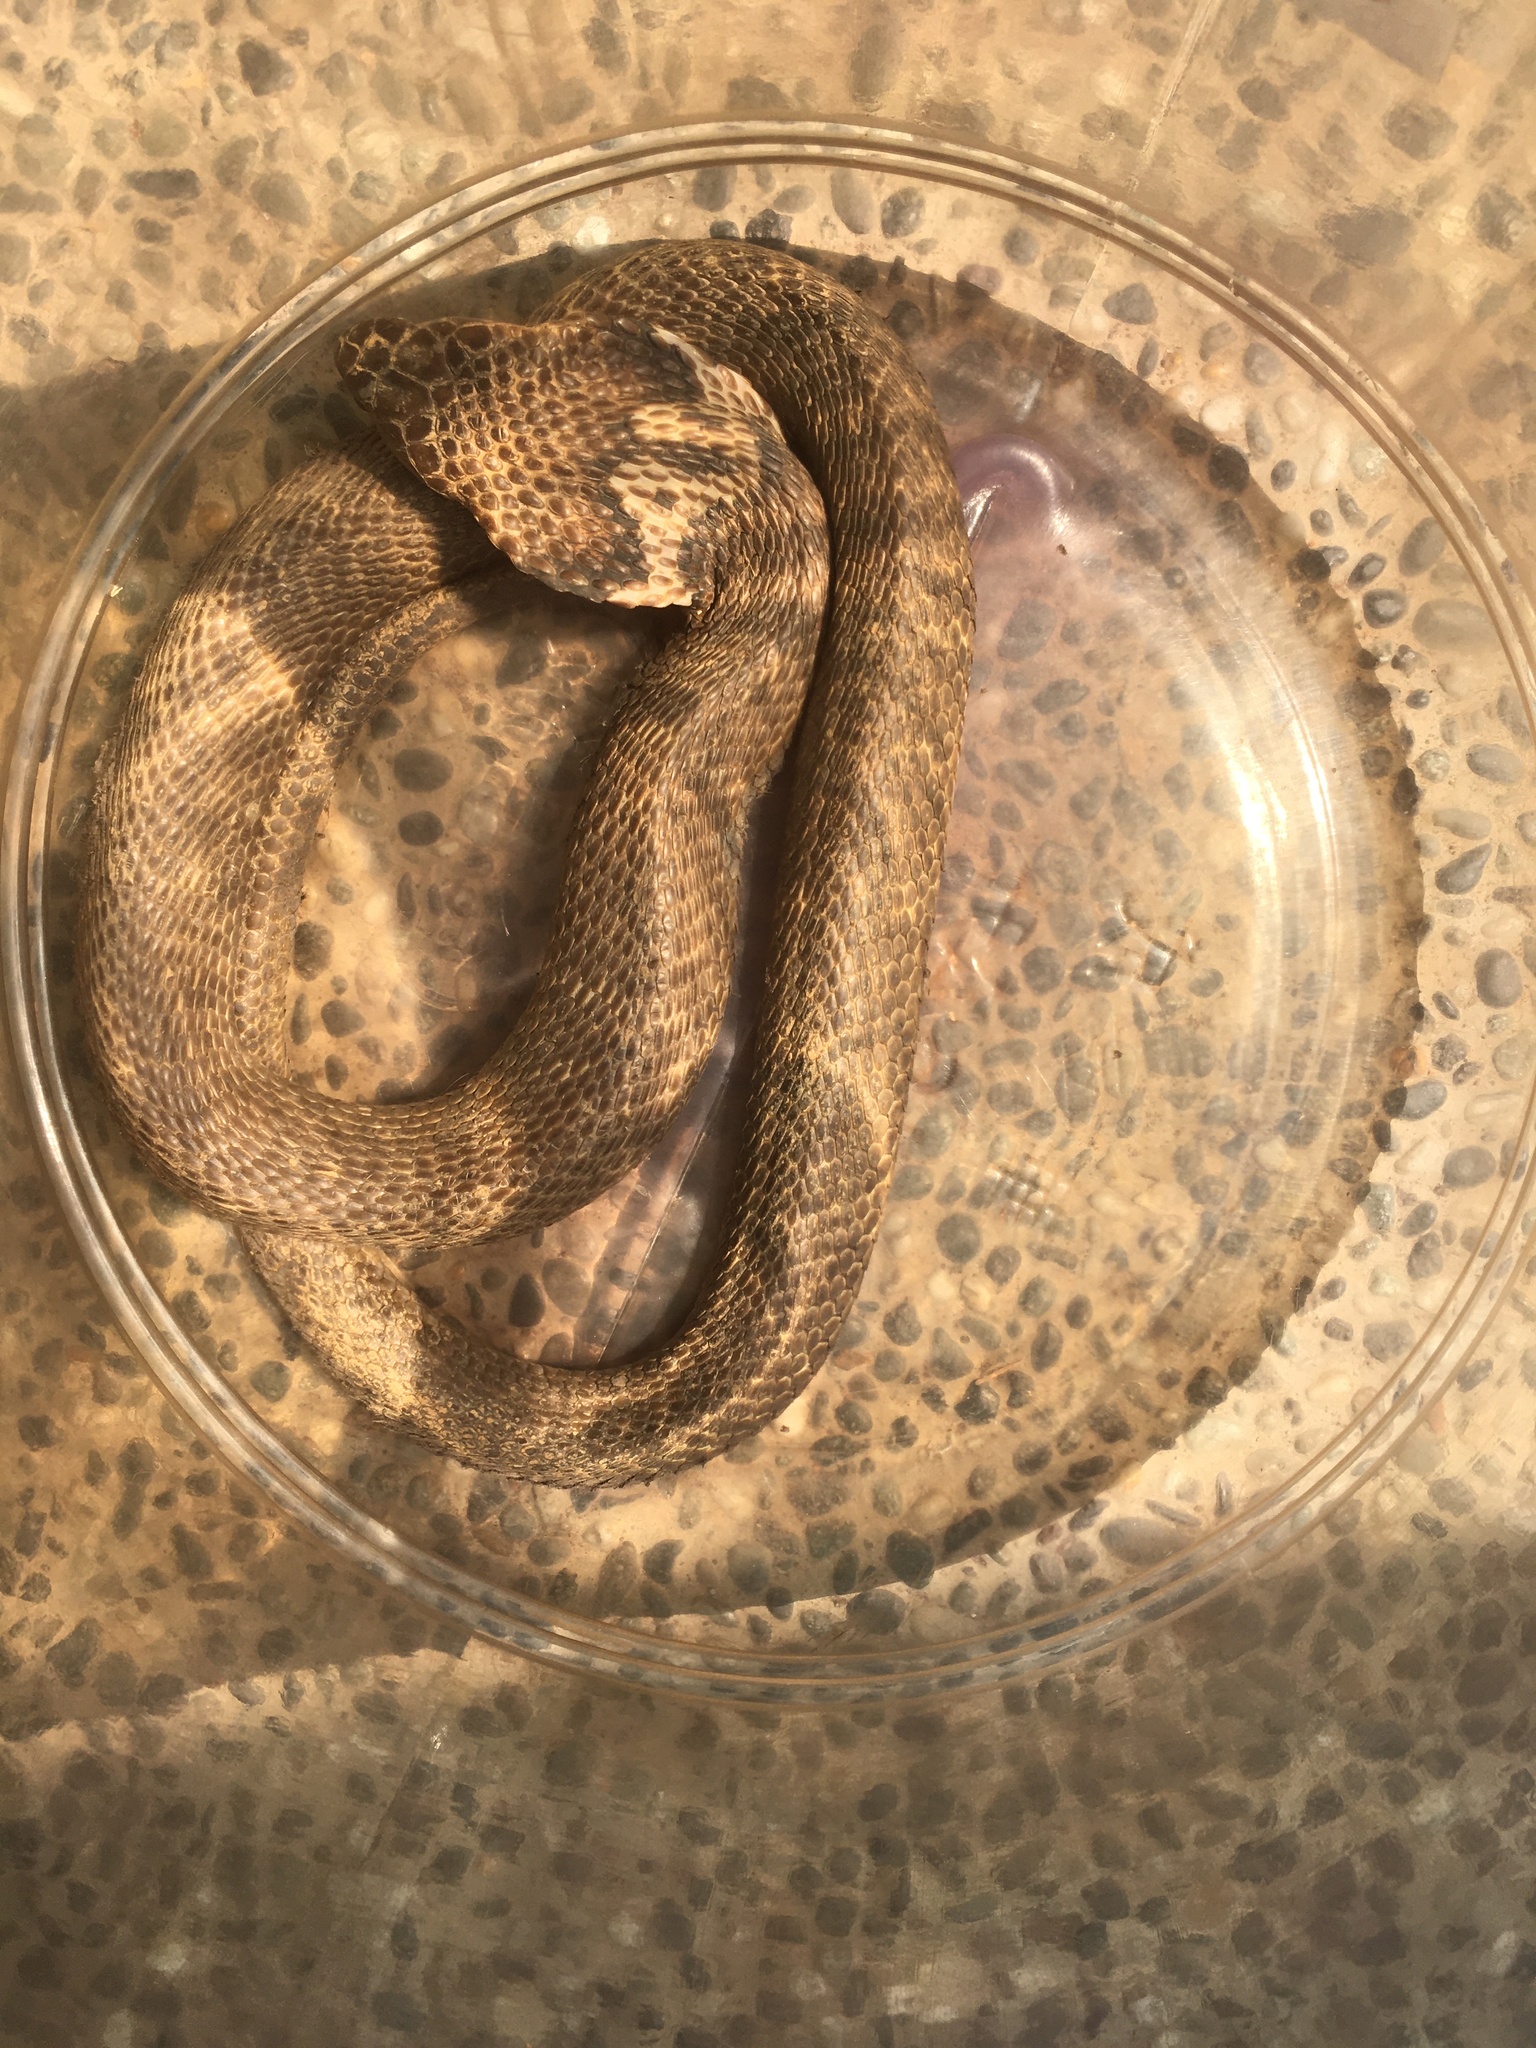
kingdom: Animalia
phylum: Chordata
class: Squamata
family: Elapidae
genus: Naja
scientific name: Naja atra
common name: Chinese cobra
